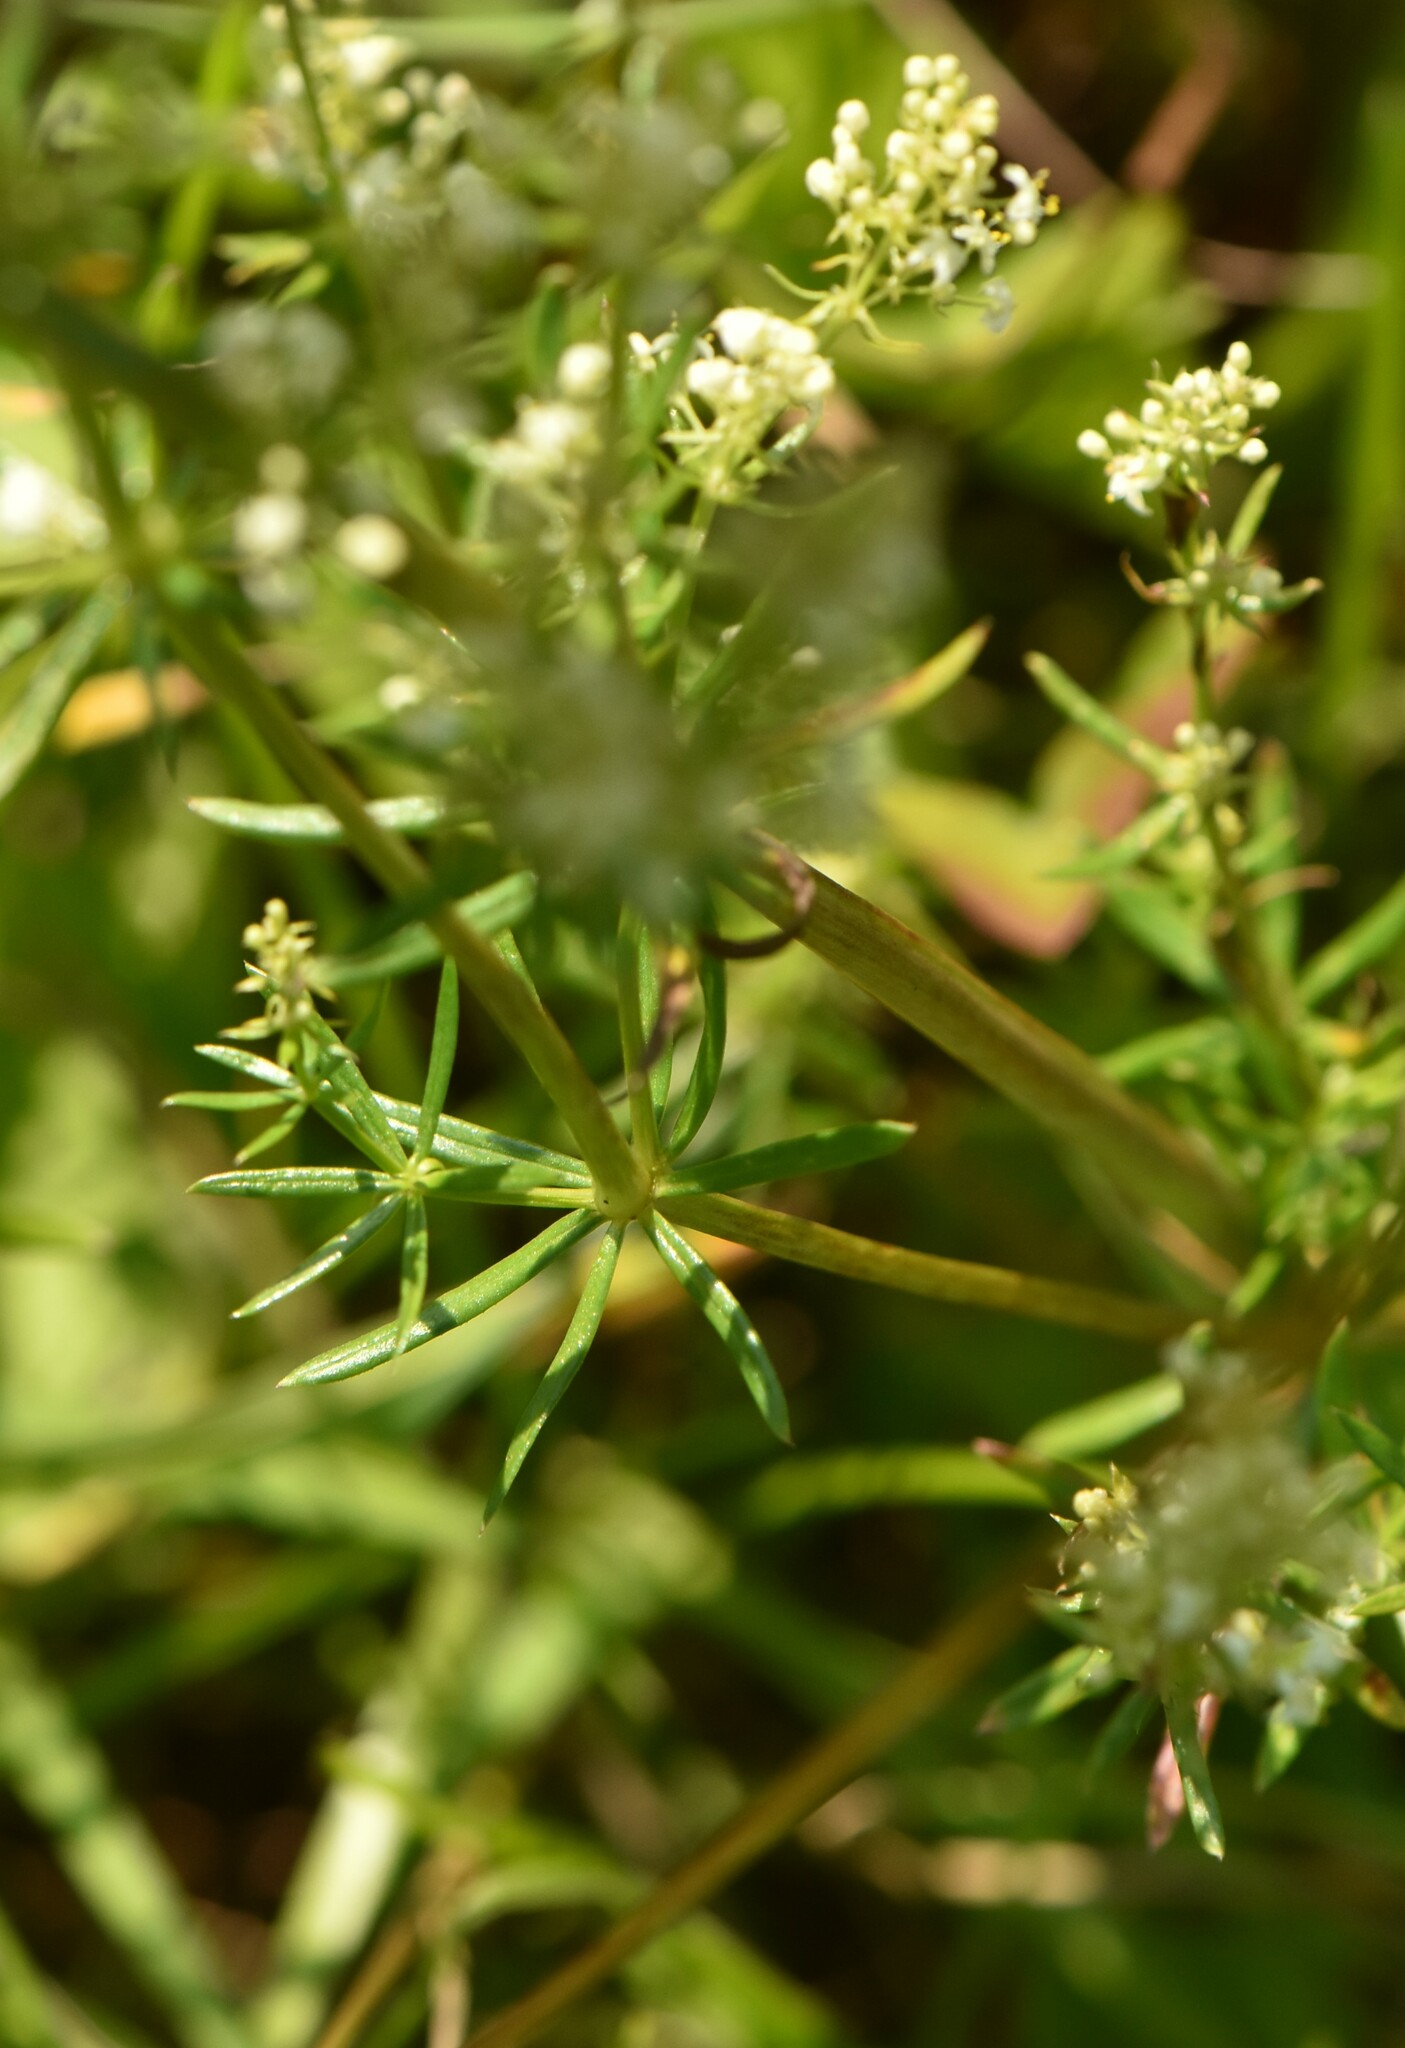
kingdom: Plantae
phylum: Tracheophyta
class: Magnoliopsida
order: Gentianales
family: Rubiaceae
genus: Galium
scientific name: Galium mollugo
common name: Hedge bedstraw
